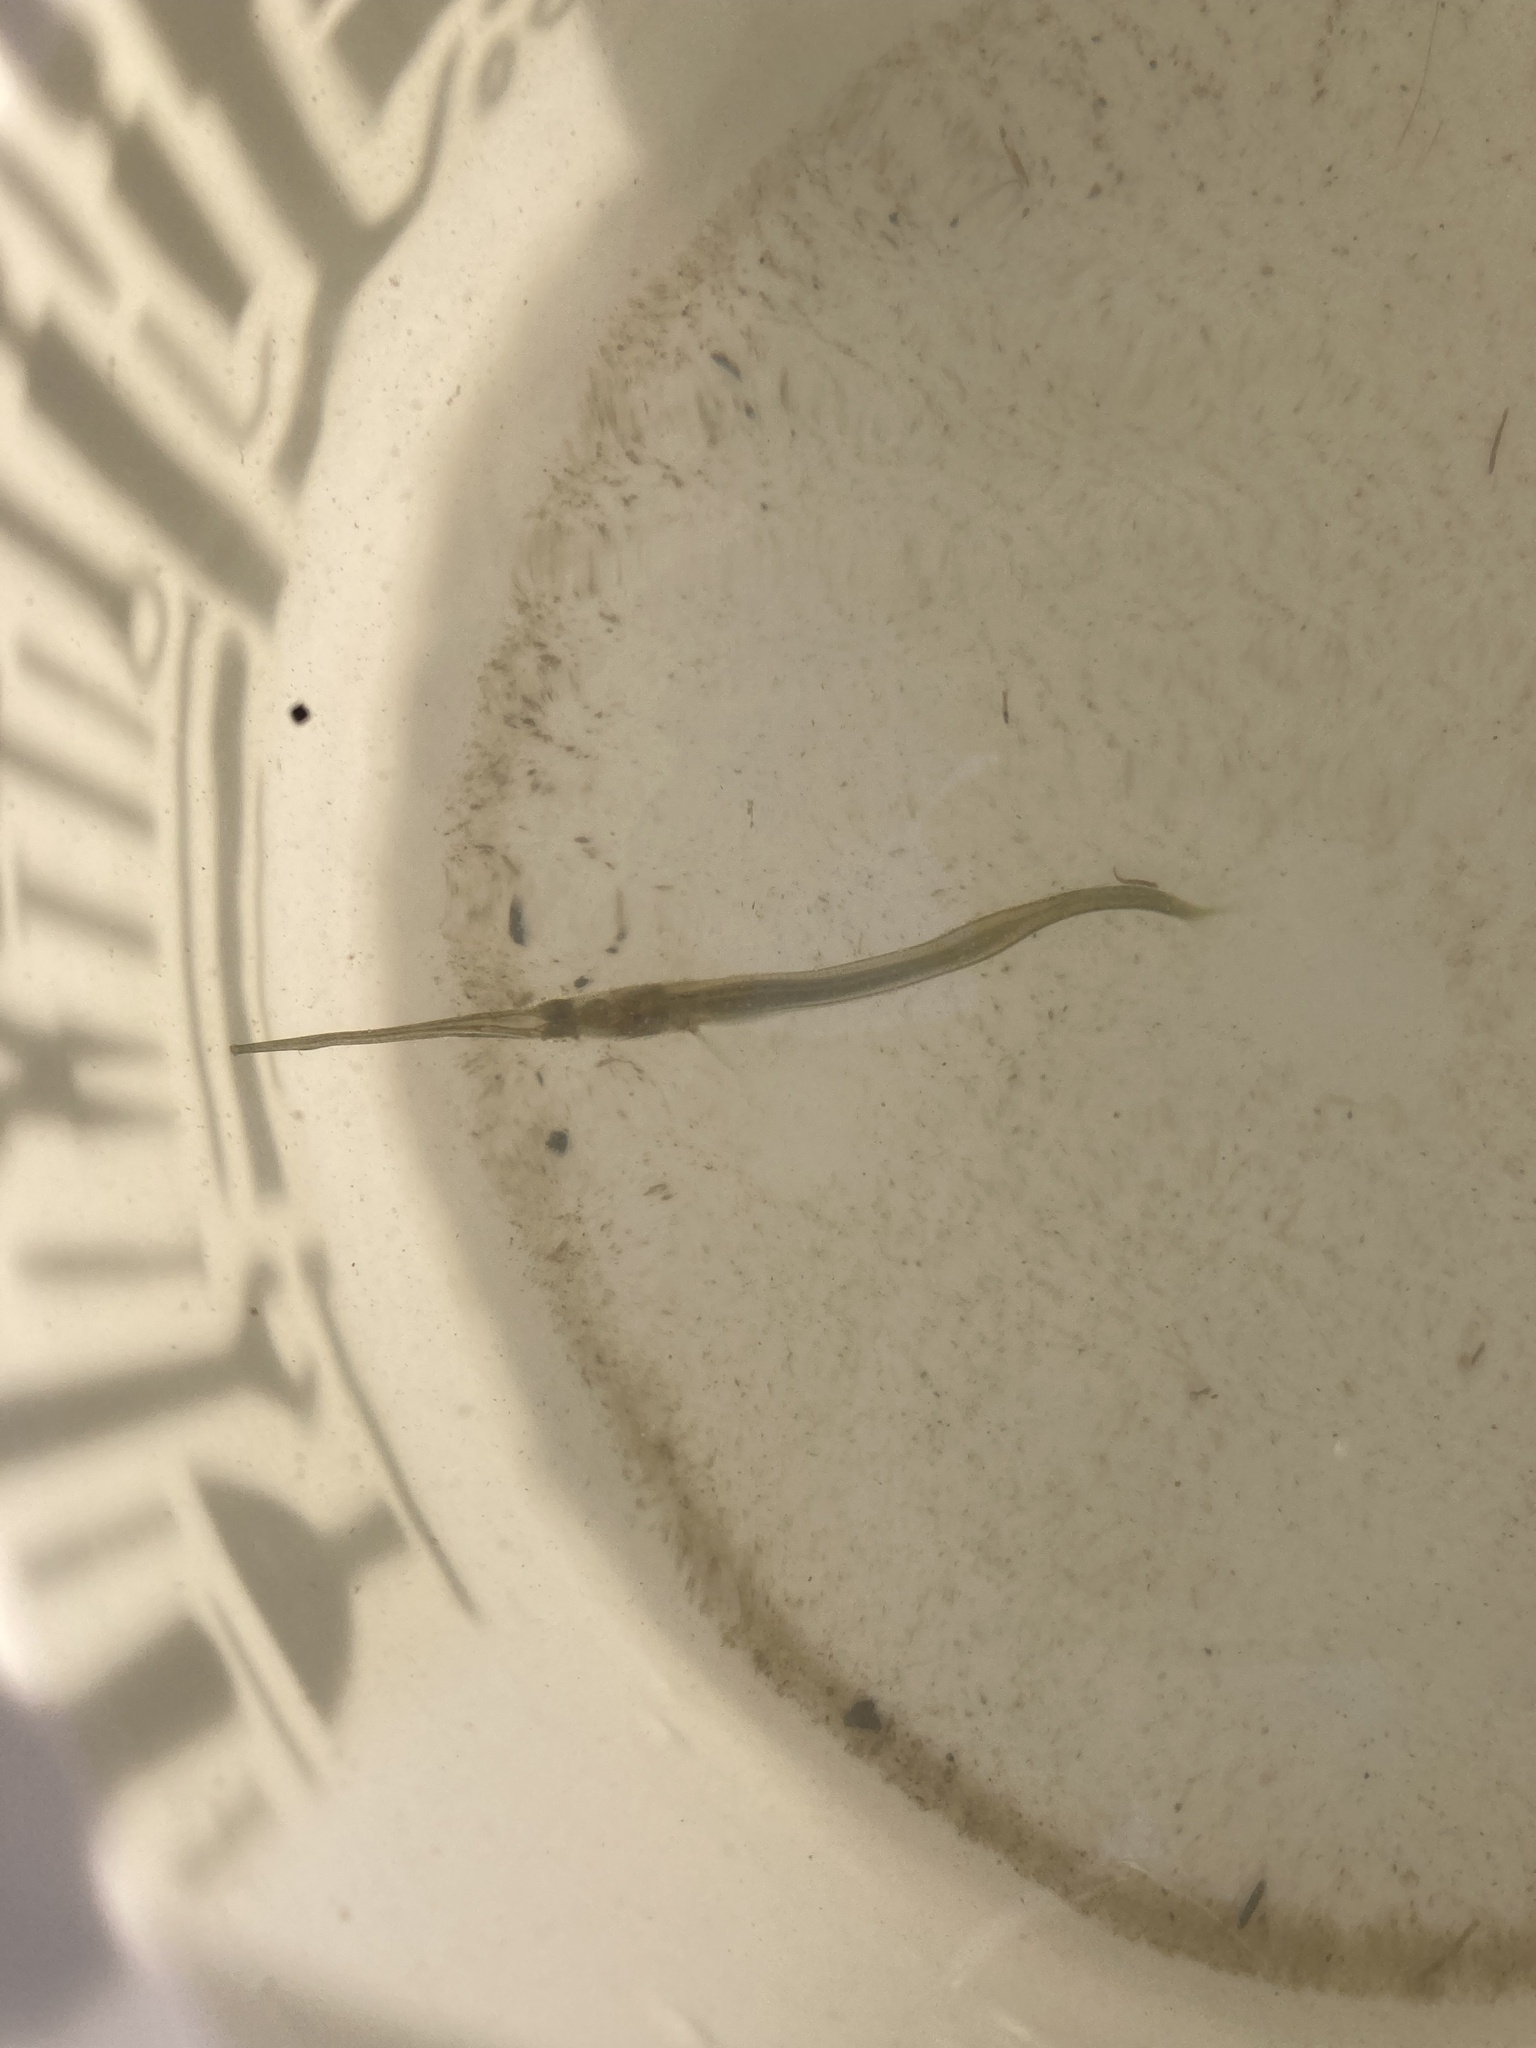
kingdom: Animalia
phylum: Chordata
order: Beloniformes
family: Belonidae
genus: Strongylura
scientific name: Strongylura marina
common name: Atlantic needlefish
